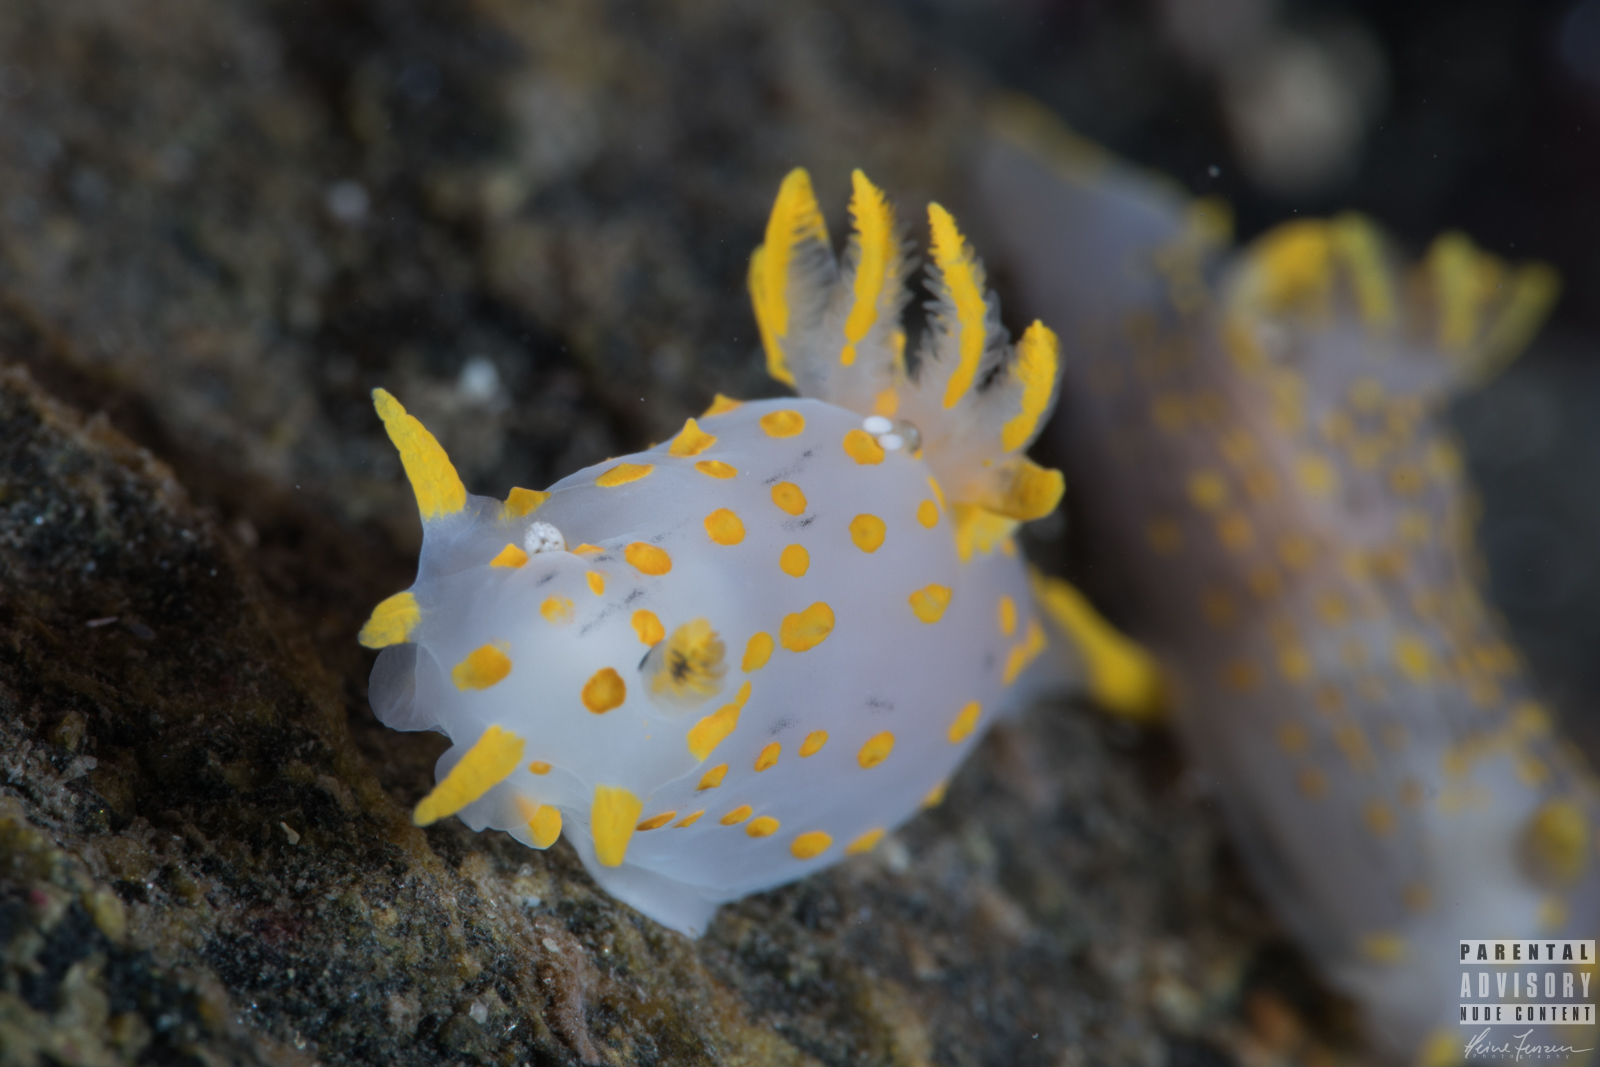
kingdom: Animalia
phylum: Mollusca
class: Gastropoda
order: Nudibranchia
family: Polyceridae
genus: Polycera
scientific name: Polycera quadrilineata
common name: Four-striped polycera
